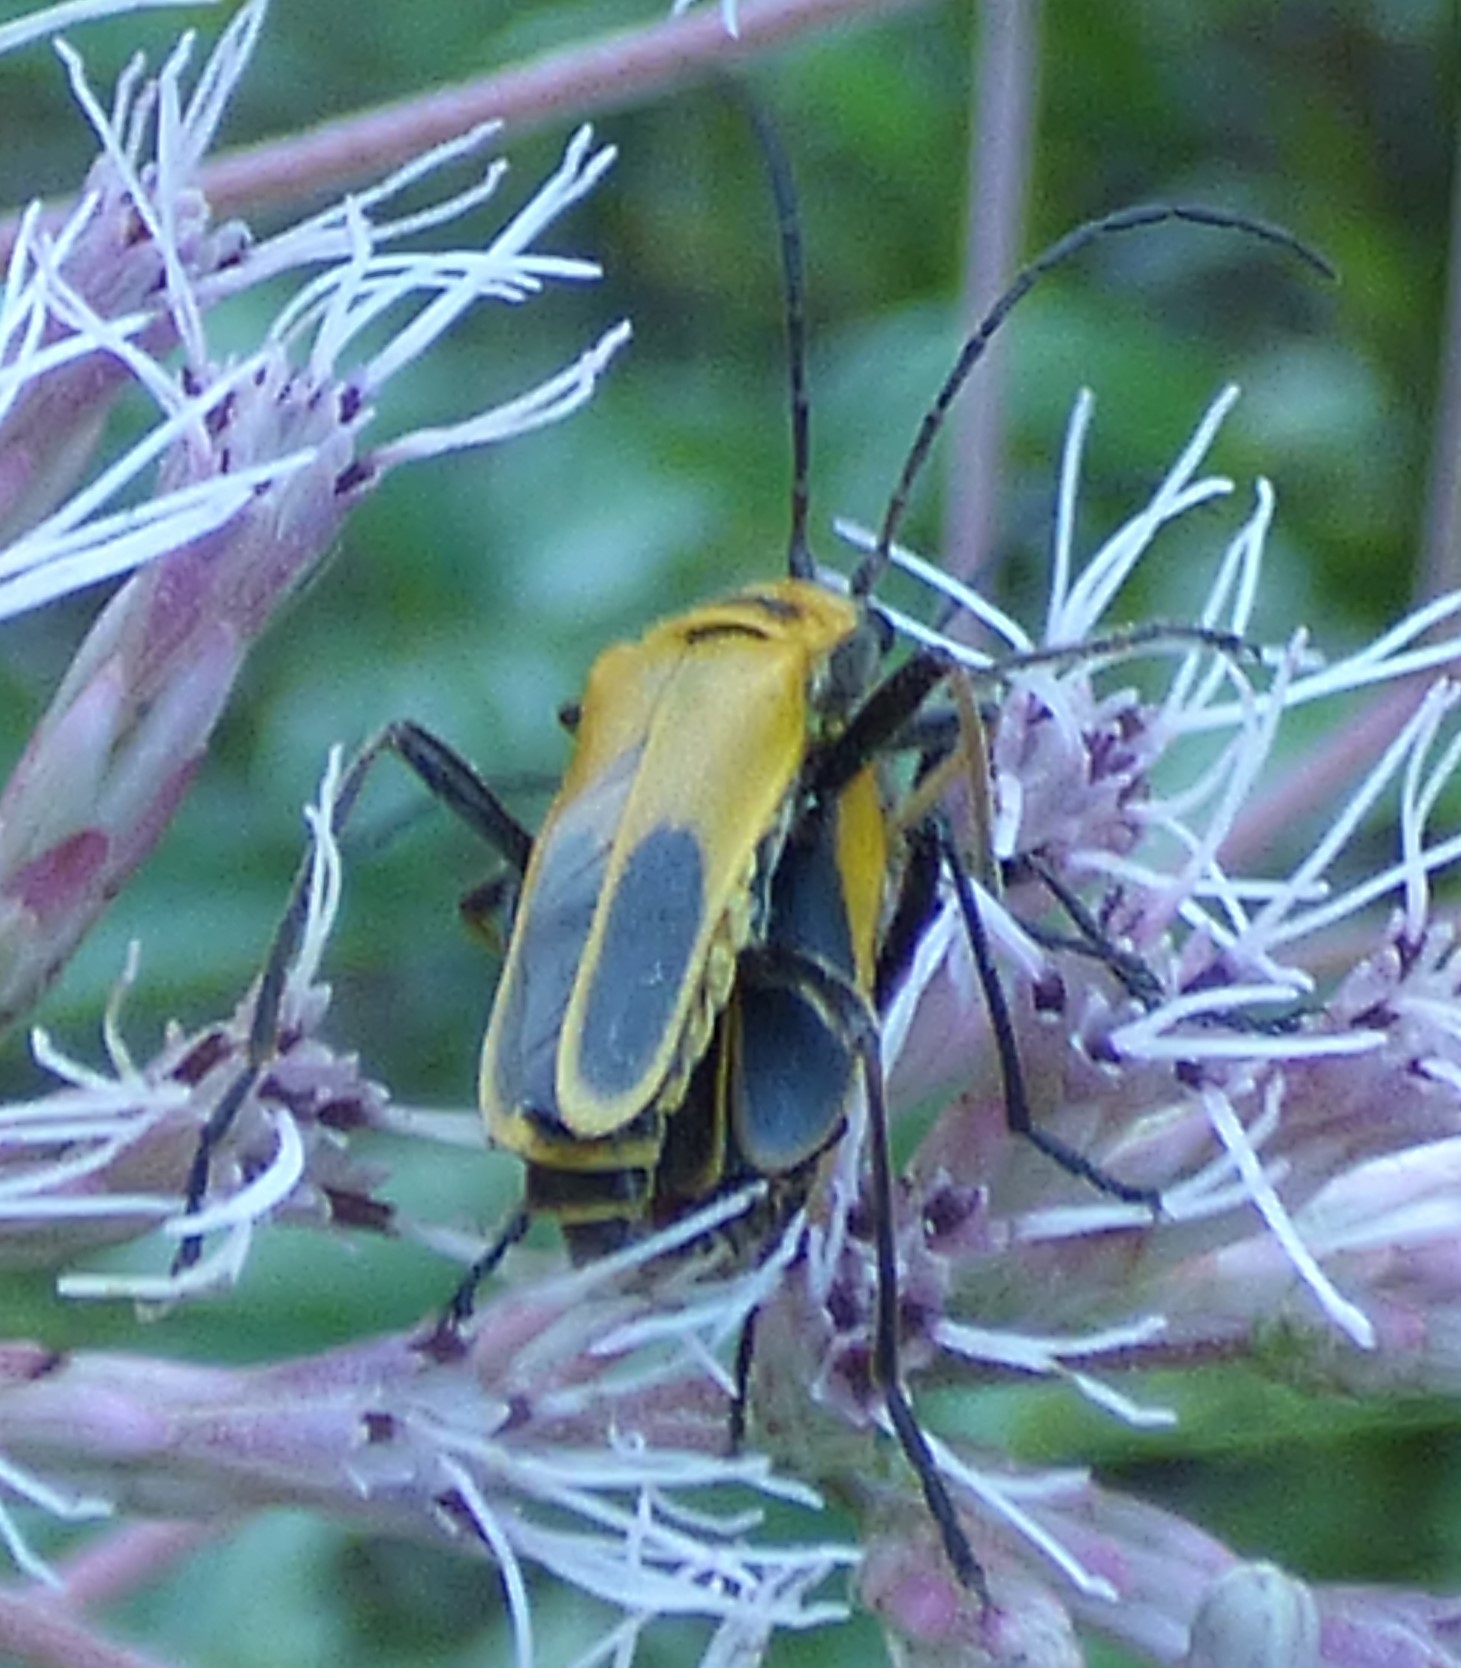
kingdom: Animalia
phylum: Arthropoda
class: Insecta
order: Coleoptera
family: Cantharidae
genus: Chauliognathus
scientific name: Chauliognathus pensylvanicus
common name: Goldenrod soldier beetle
